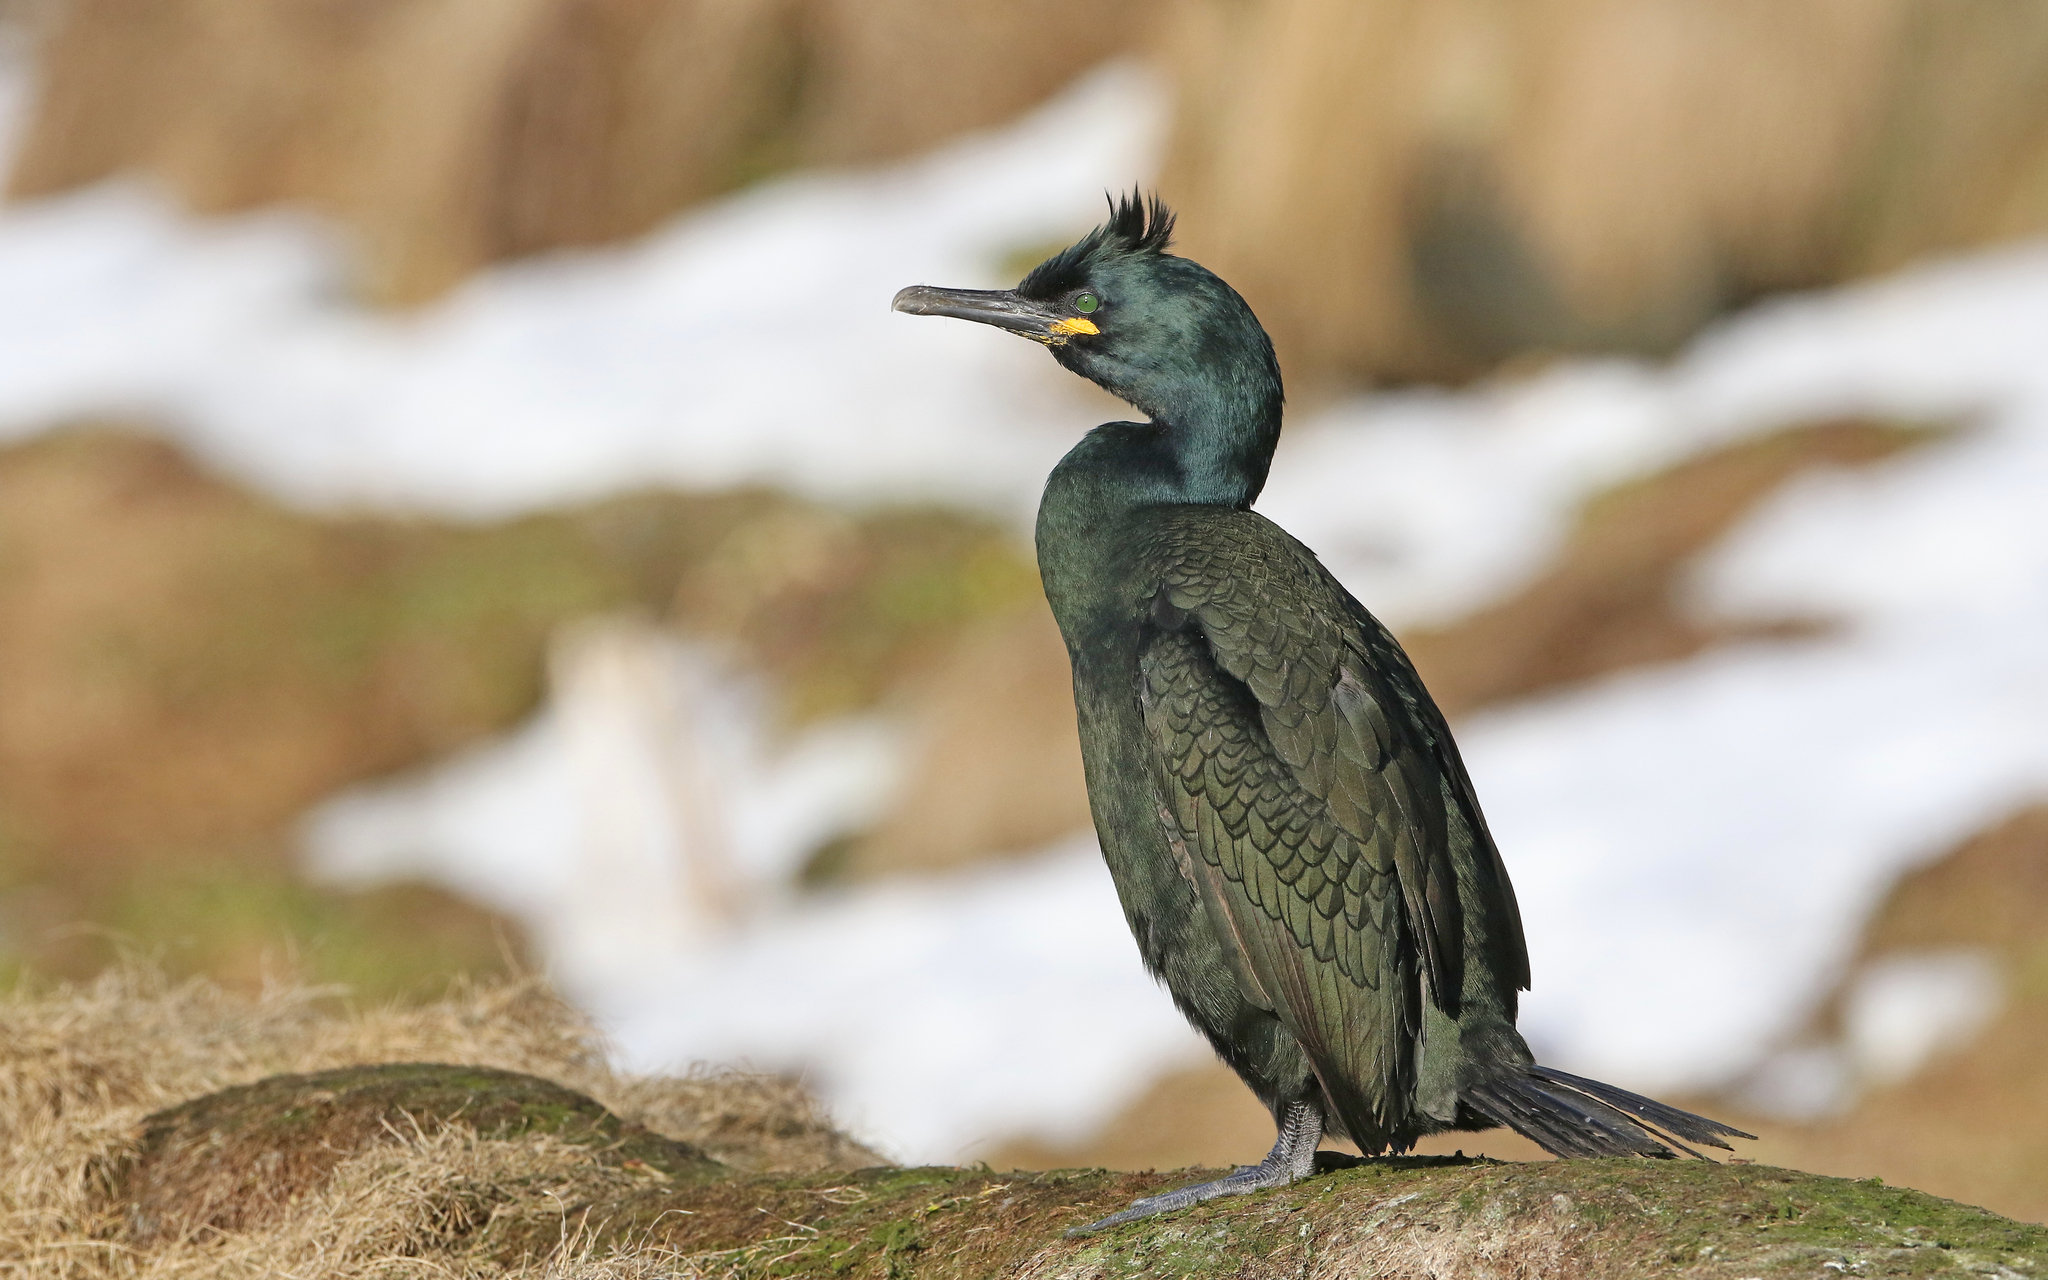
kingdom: Animalia
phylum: Chordata
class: Aves
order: Suliformes
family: Phalacrocoracidae
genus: Phalacrocorax
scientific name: Phalacrocorax aristotelis
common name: European shag
